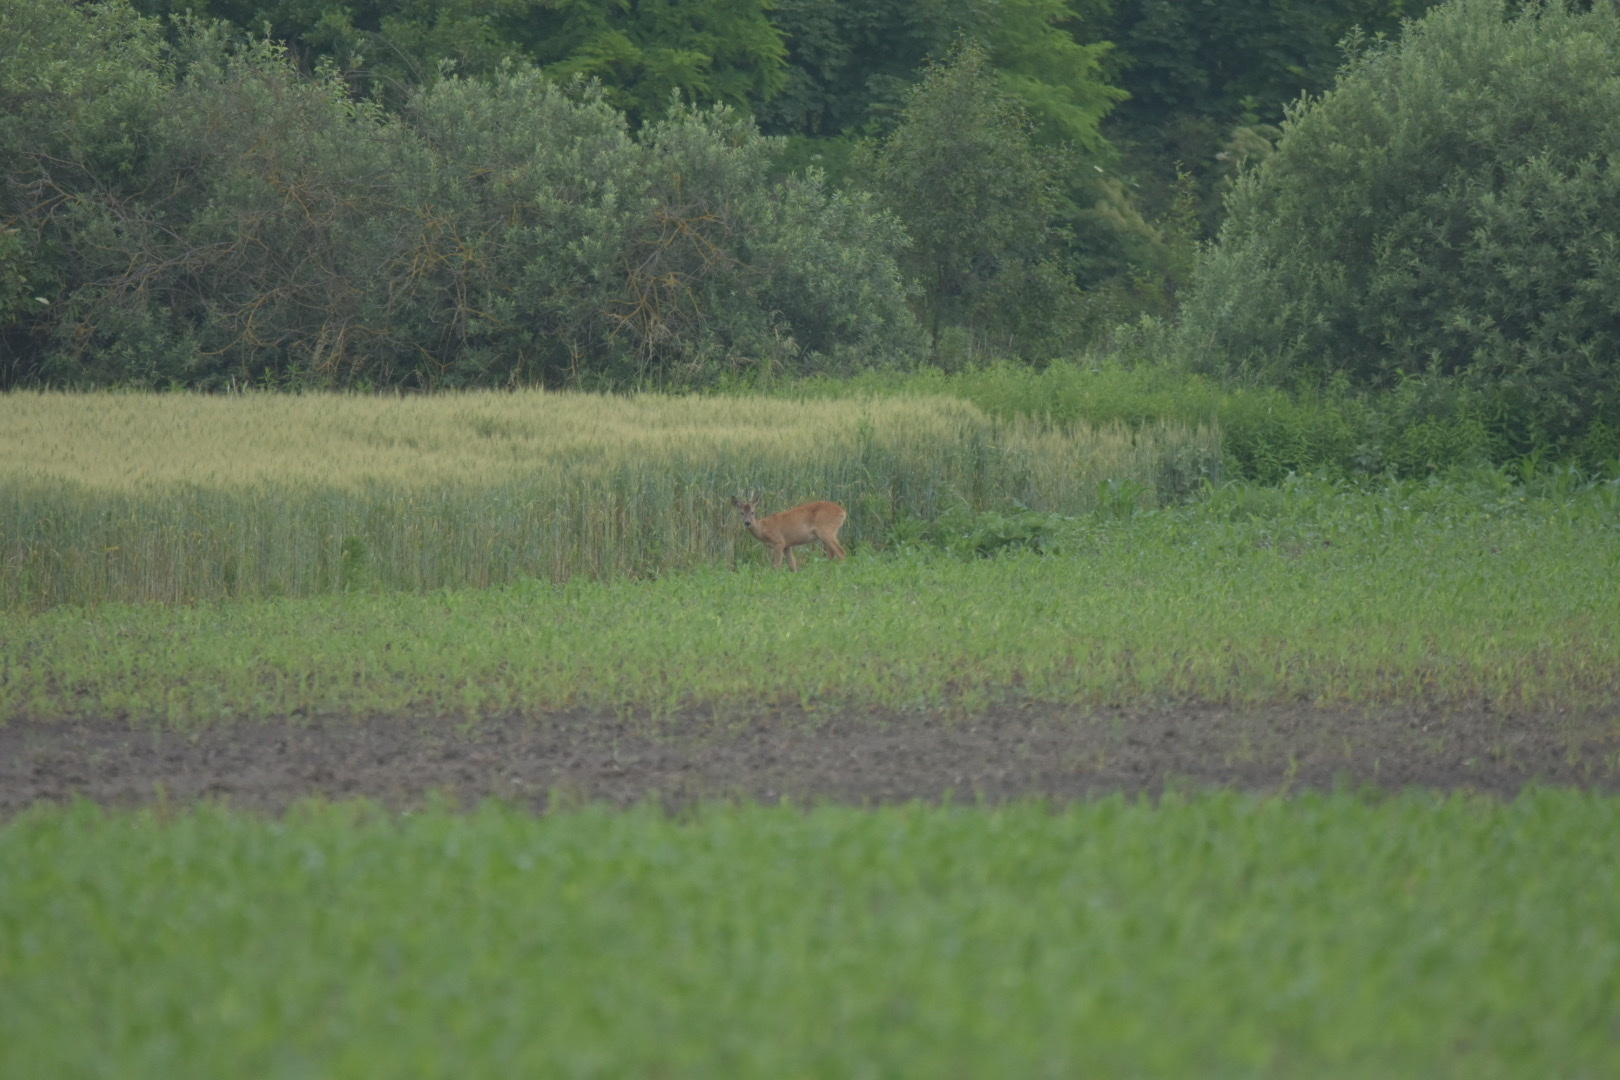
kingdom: Animalia
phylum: Chordata
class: Mammalia
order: Artiodactyla
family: Cervidae
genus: Capreolus
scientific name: Capreolus capreolus
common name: Western roe deer
